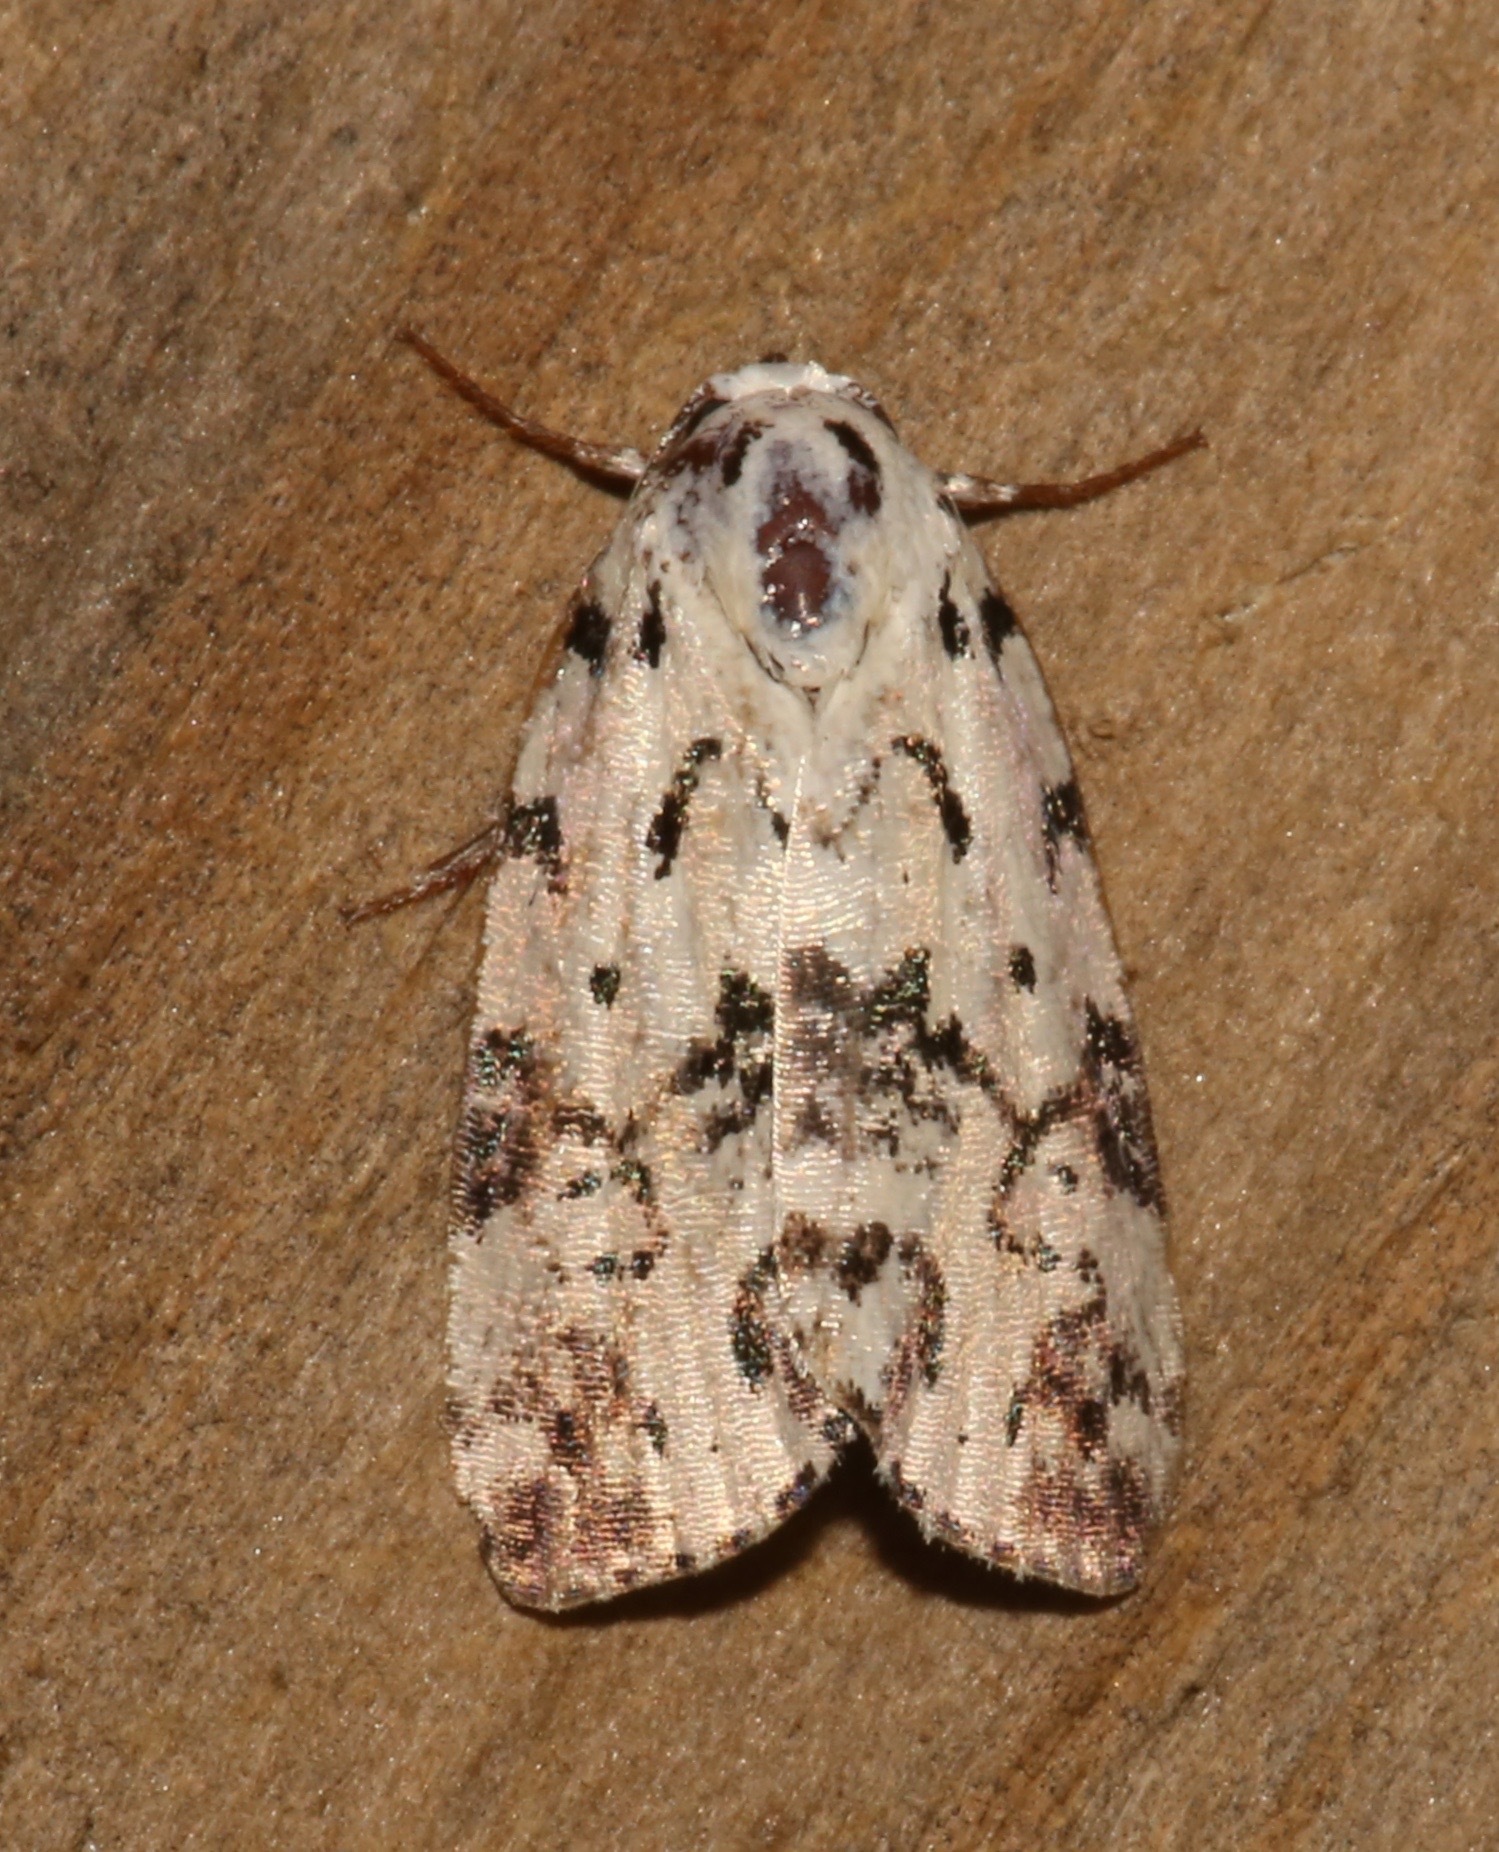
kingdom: Animalia
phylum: Arthropoda
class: Insecta
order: Lepidoptera
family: Noctuidae
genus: Polygrammate
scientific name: Polygrammate hebraeicum
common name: Hebrew moth
